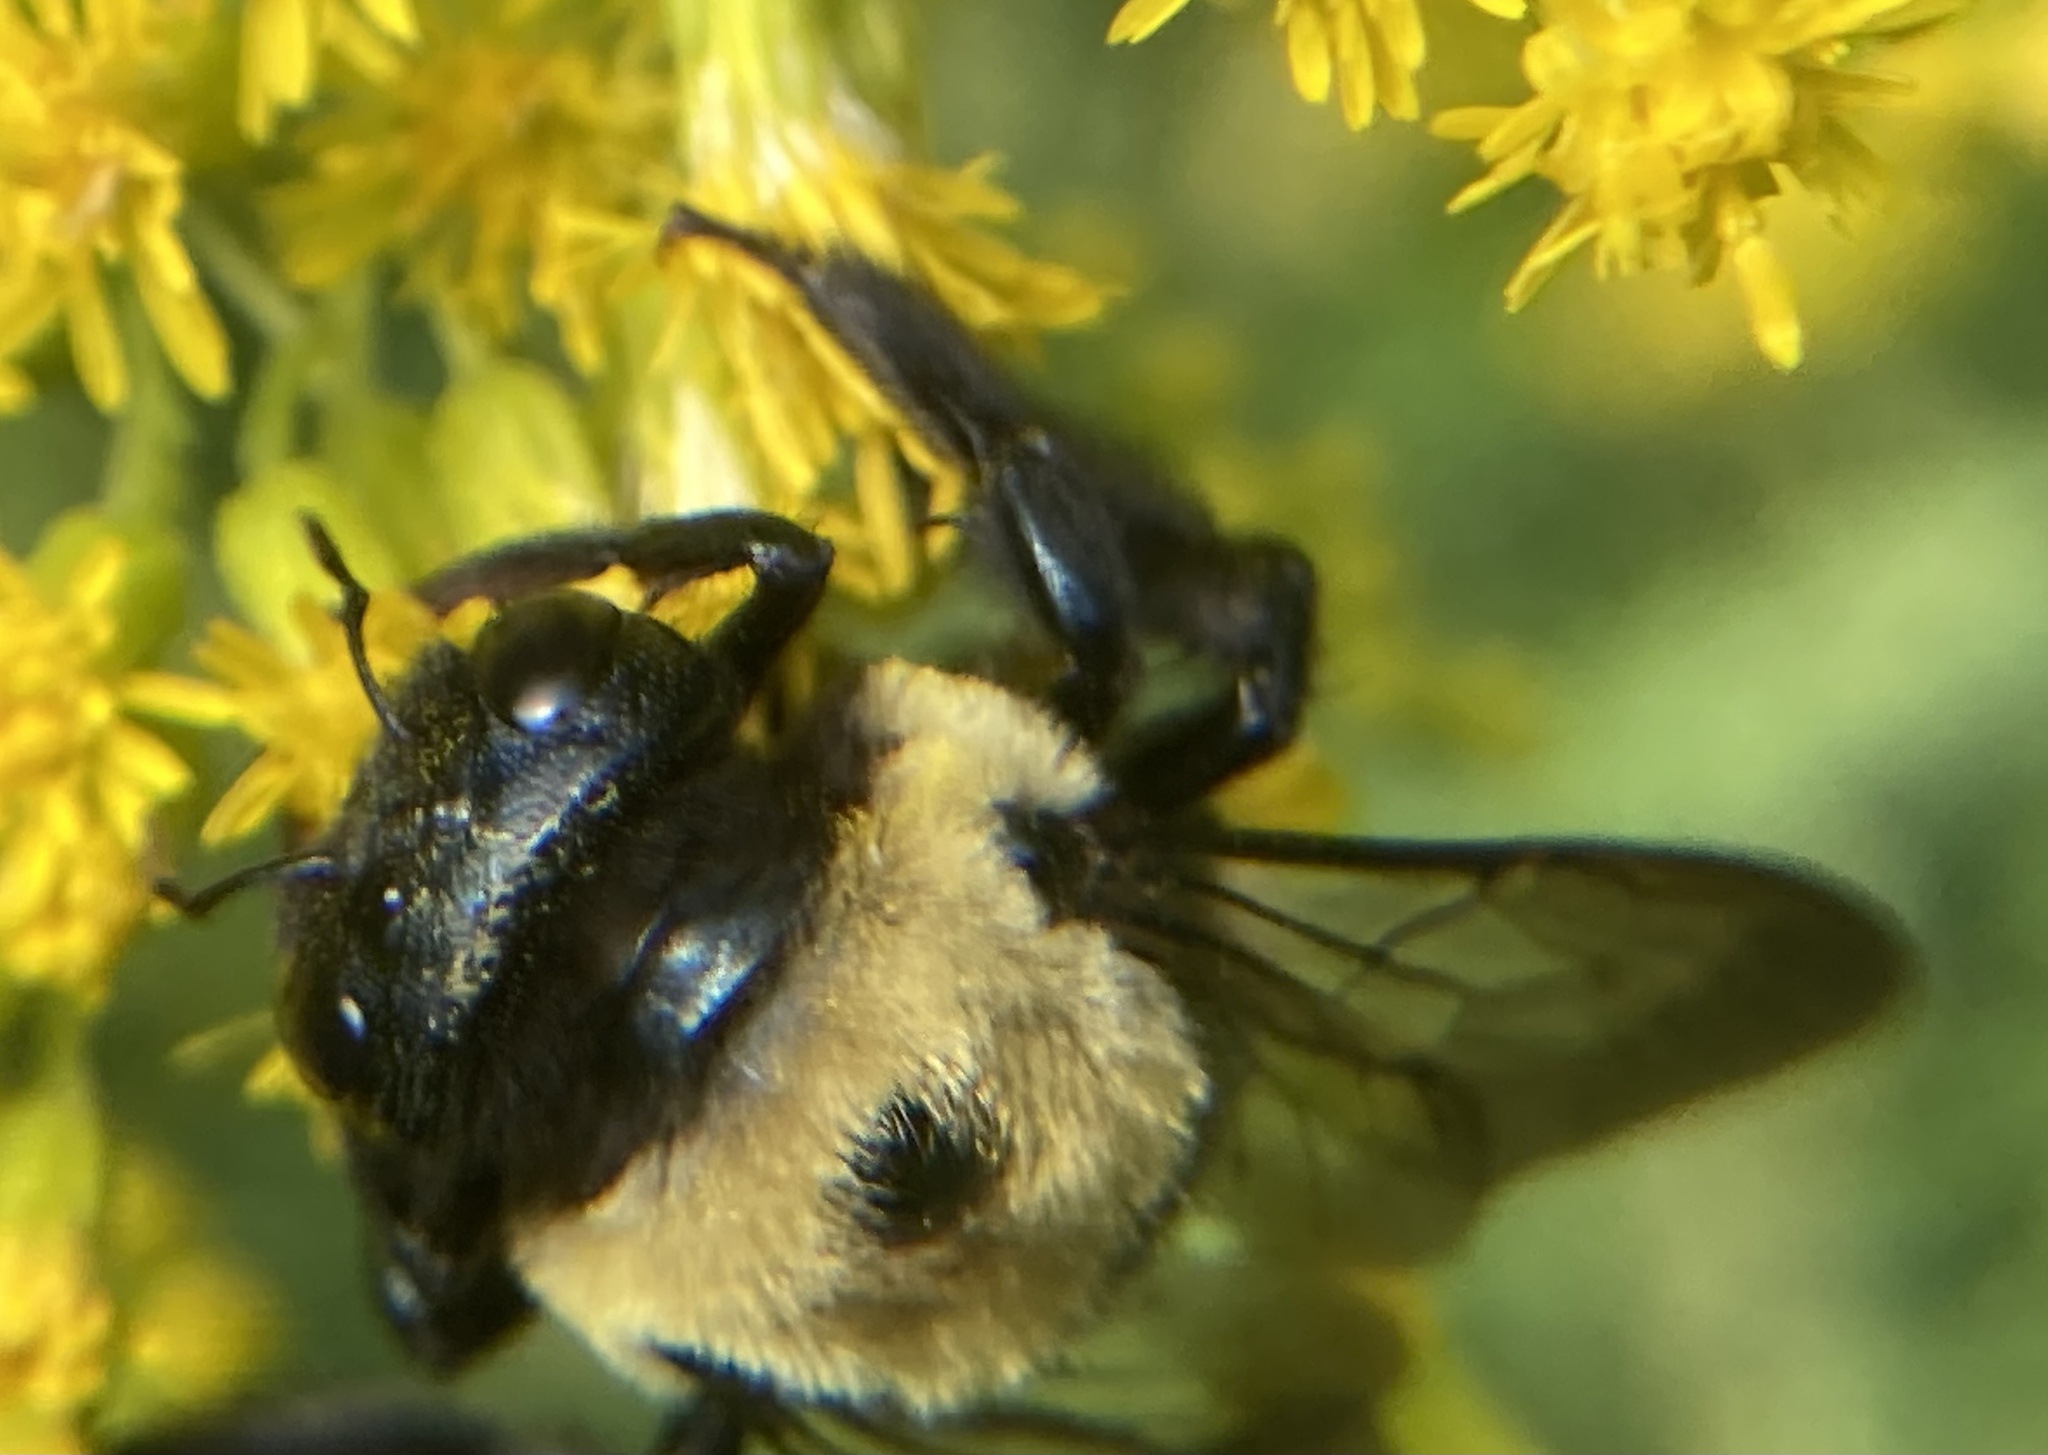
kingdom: Animalia
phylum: Arthropoda
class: Insecta
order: Hymenoptera
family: Apidae
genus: Xylocopa
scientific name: Xylocopa virginica
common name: Carpenter bee
